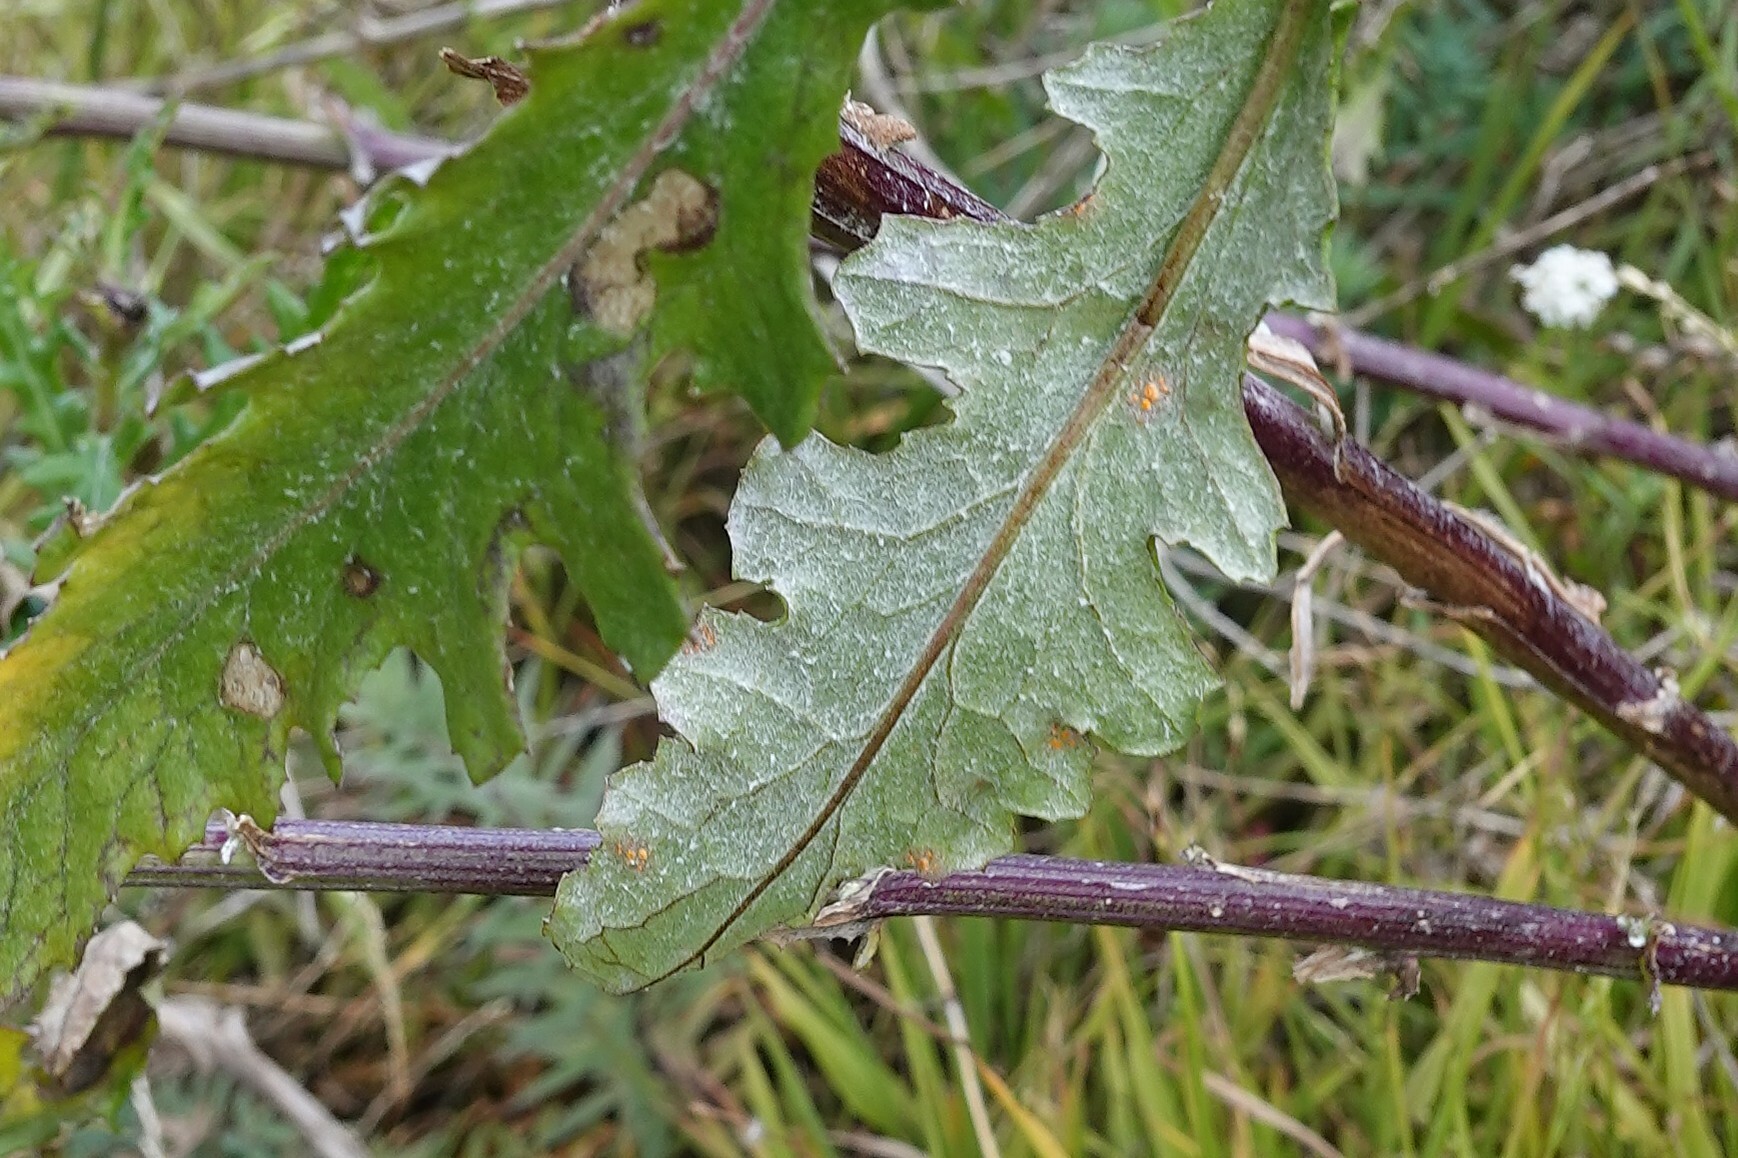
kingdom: Fungi
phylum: Basidiomycota
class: Pucciniomycetes
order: Pucciniales
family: Coleosporiaceae
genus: Coleosporium
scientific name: Coleosporium tussilaginis
